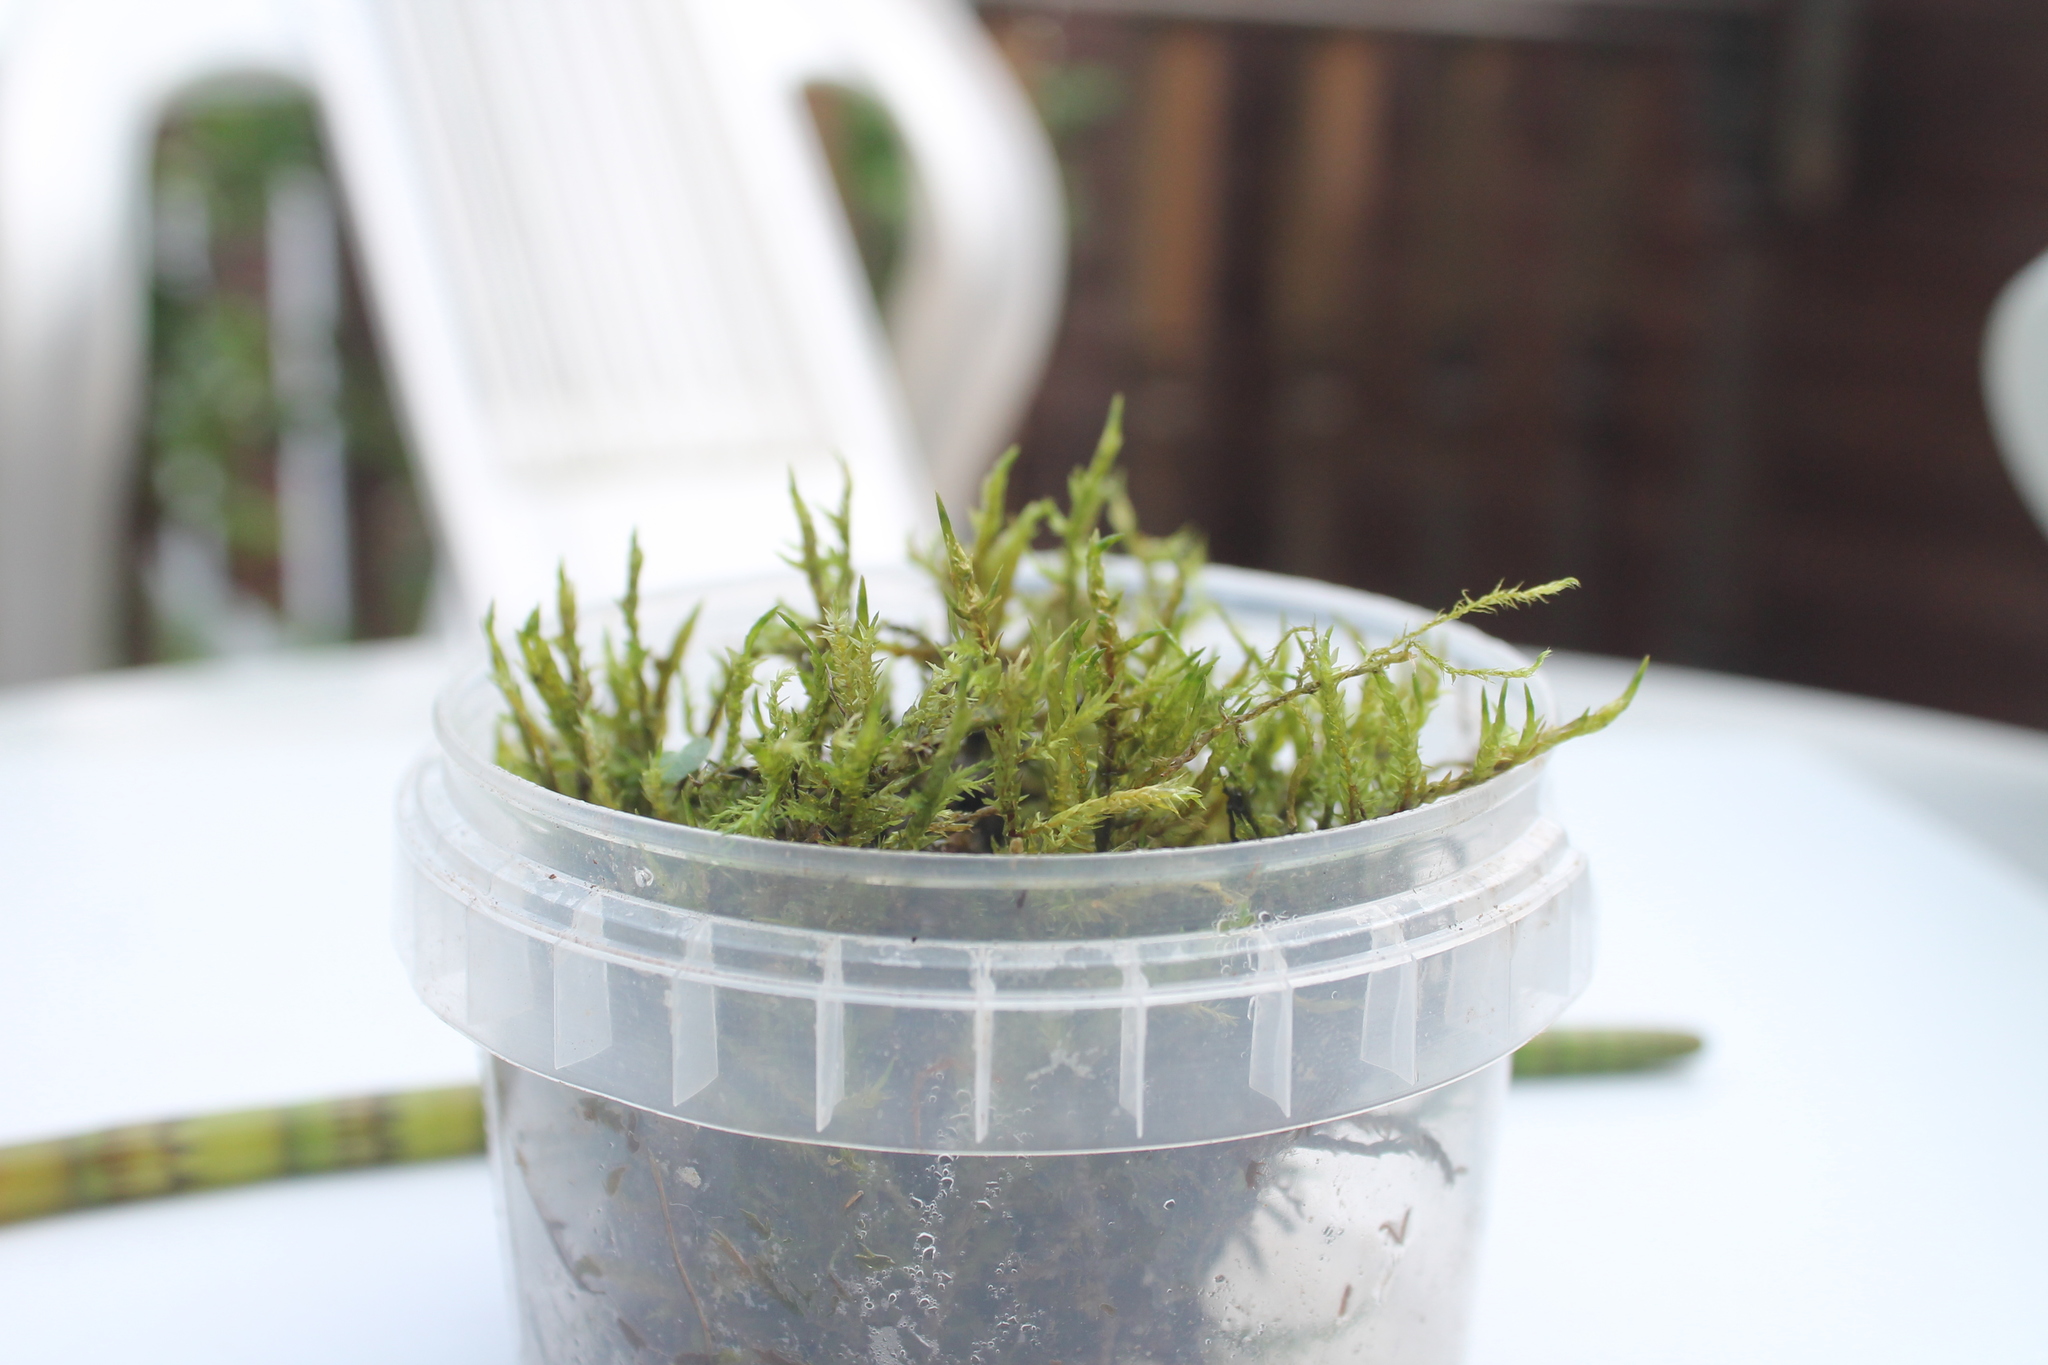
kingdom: Plantae
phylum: Bryophyta
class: Bryopsida
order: Hypnales
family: Pylaisiaceae
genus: Calliergonella
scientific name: Calliergonella cuspidata
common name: Common large wetland moss
